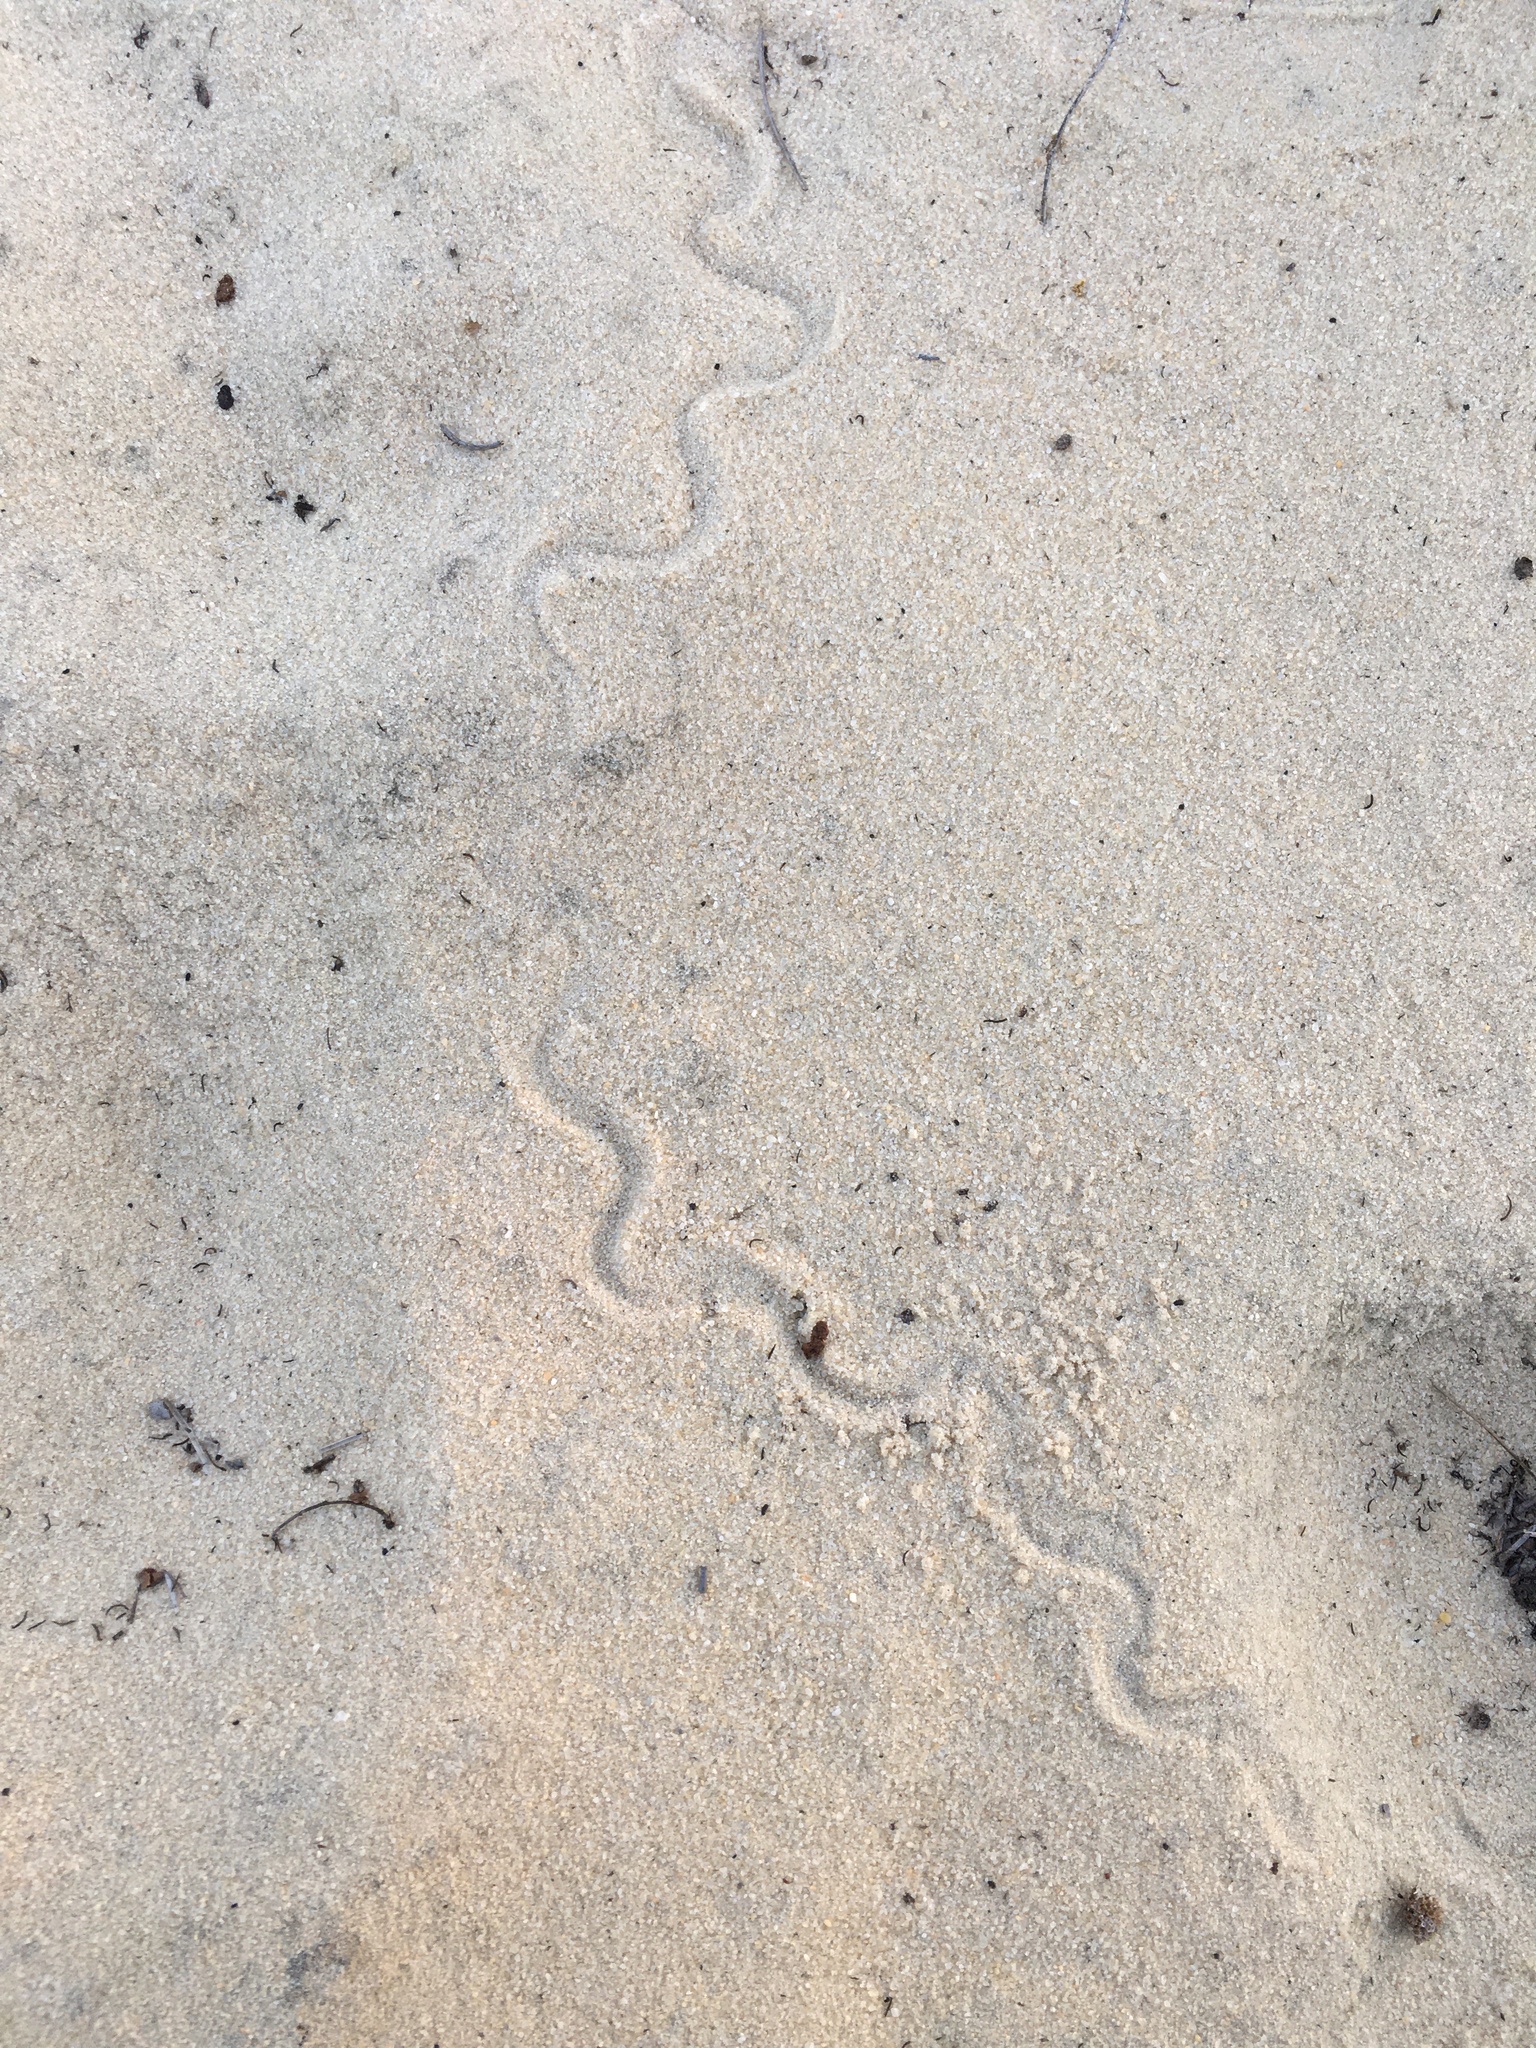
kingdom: Animalia
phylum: Chordata
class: Squamata
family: Scincidae
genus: Plestiodon
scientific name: Plestiodon reynoldsi
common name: Florida sand skink
